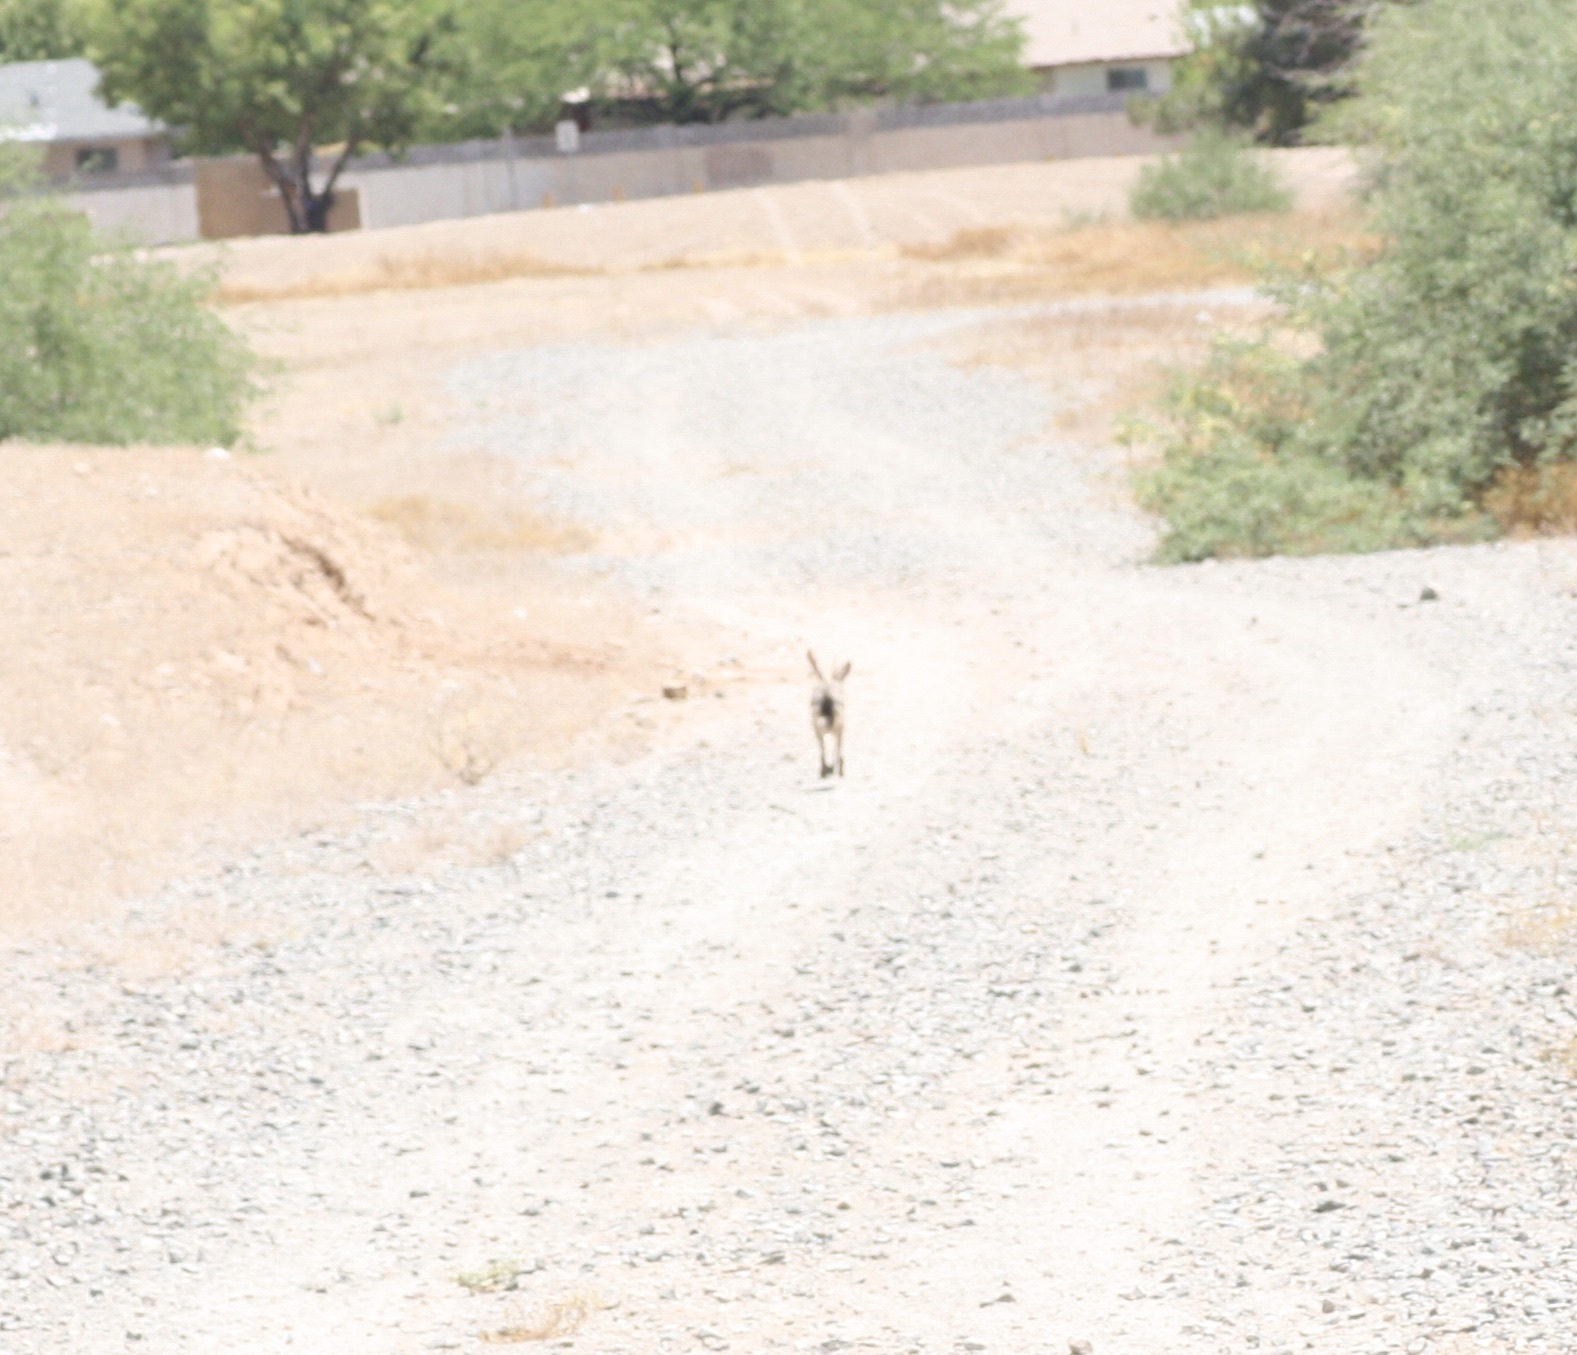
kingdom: Animalia
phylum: Chordata
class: Mammalia
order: Lagomorpha
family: Leporidae
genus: Lepus
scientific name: Lepus californicus
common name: Black-tailed jackrabbit
